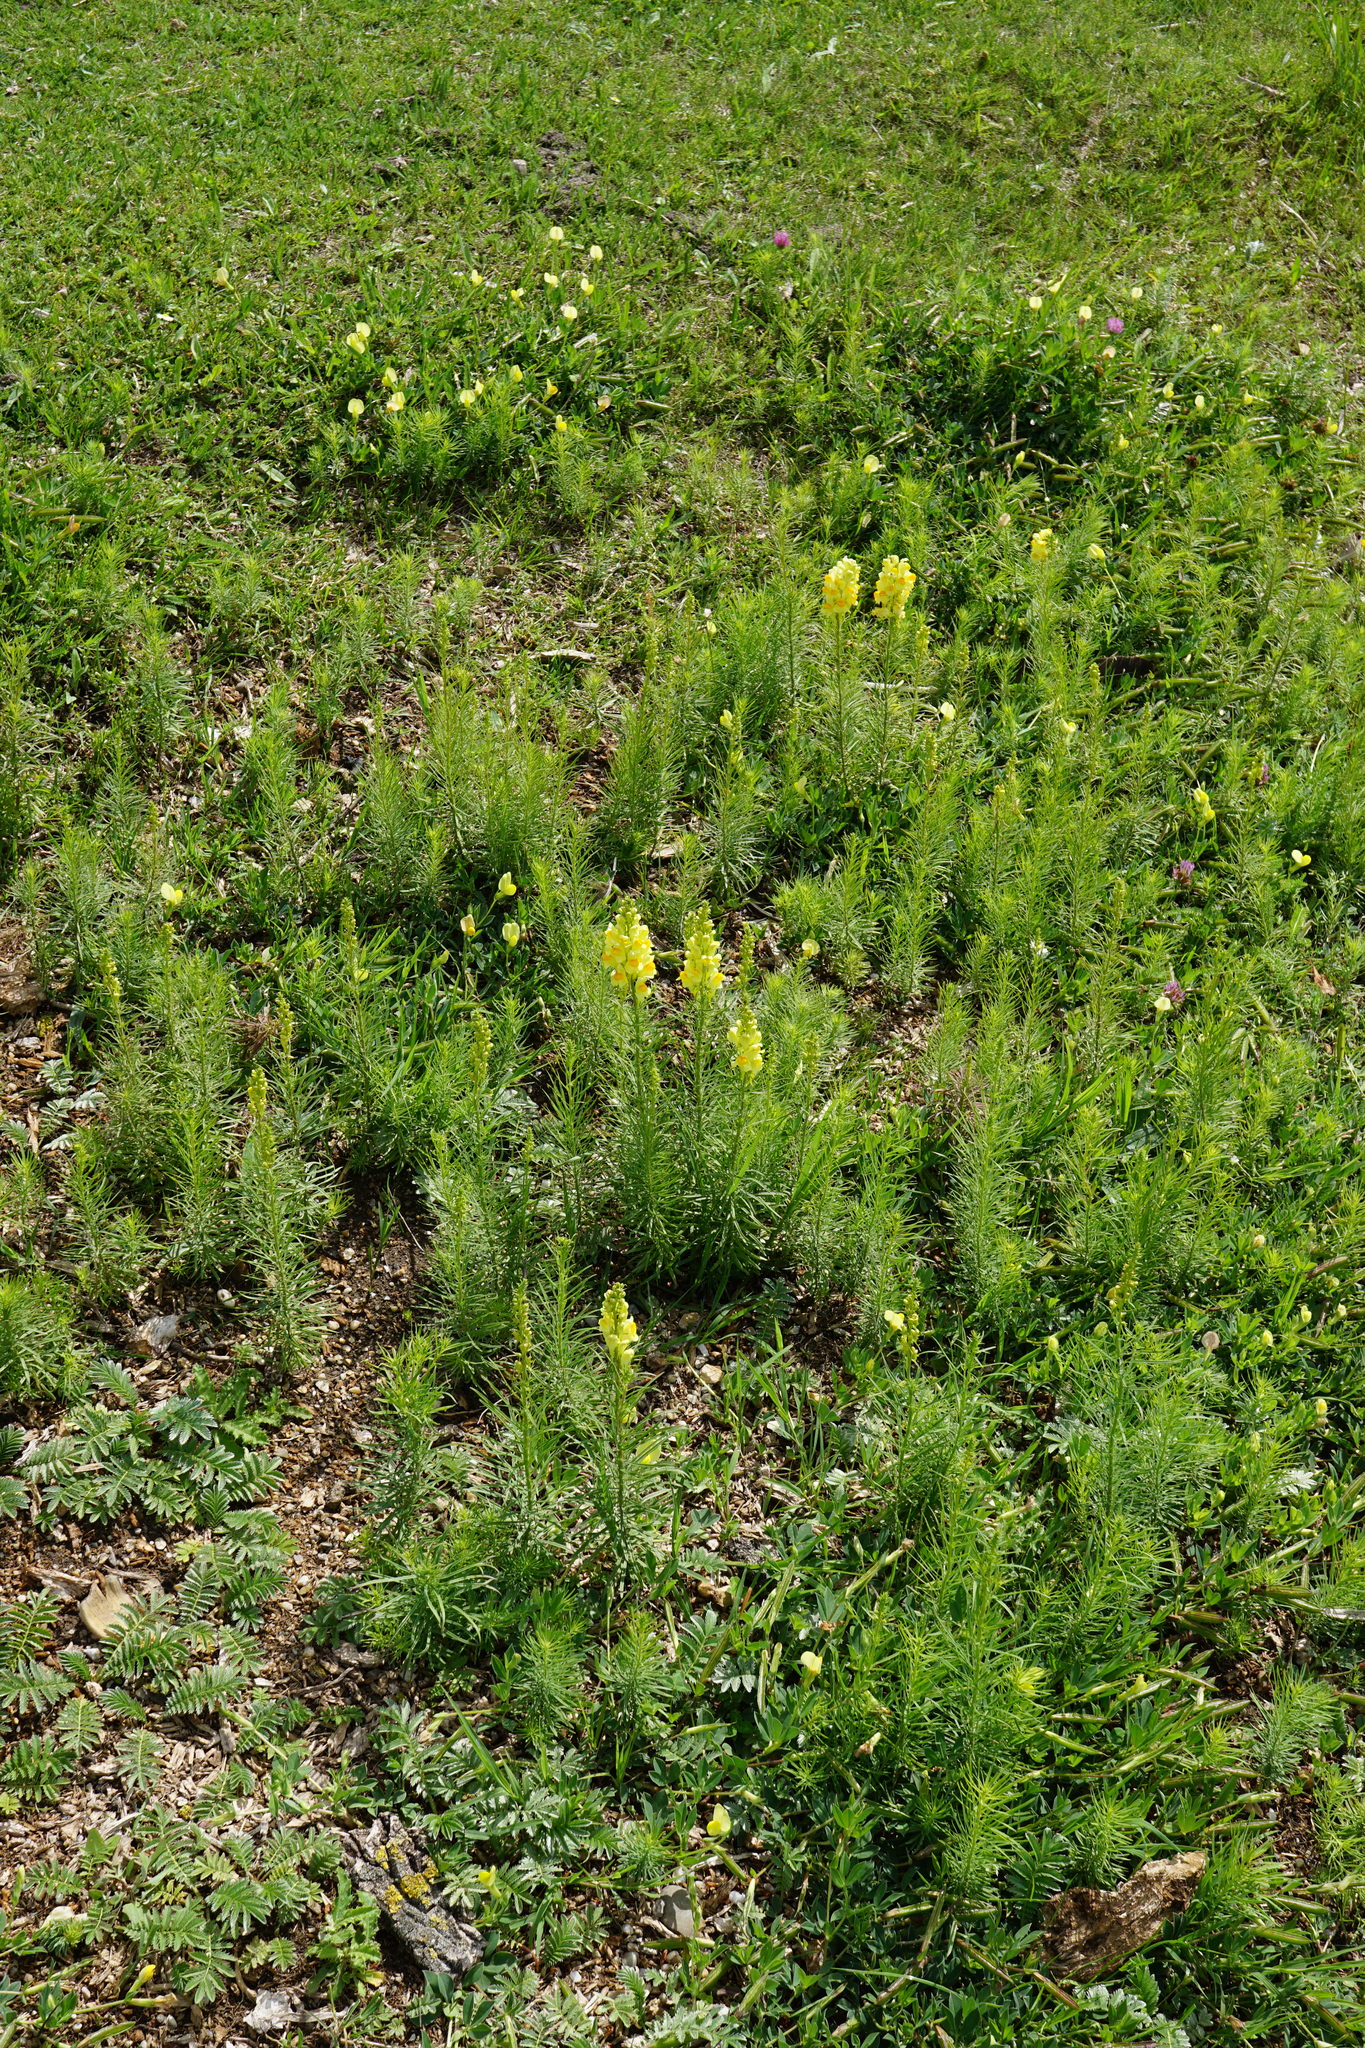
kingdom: Plantae
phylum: Tracheophyta
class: Magnoliopsida
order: Lamiales
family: Plantaginaceae
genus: Linaria
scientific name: Linaria vulgaris
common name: Butter and eggs
